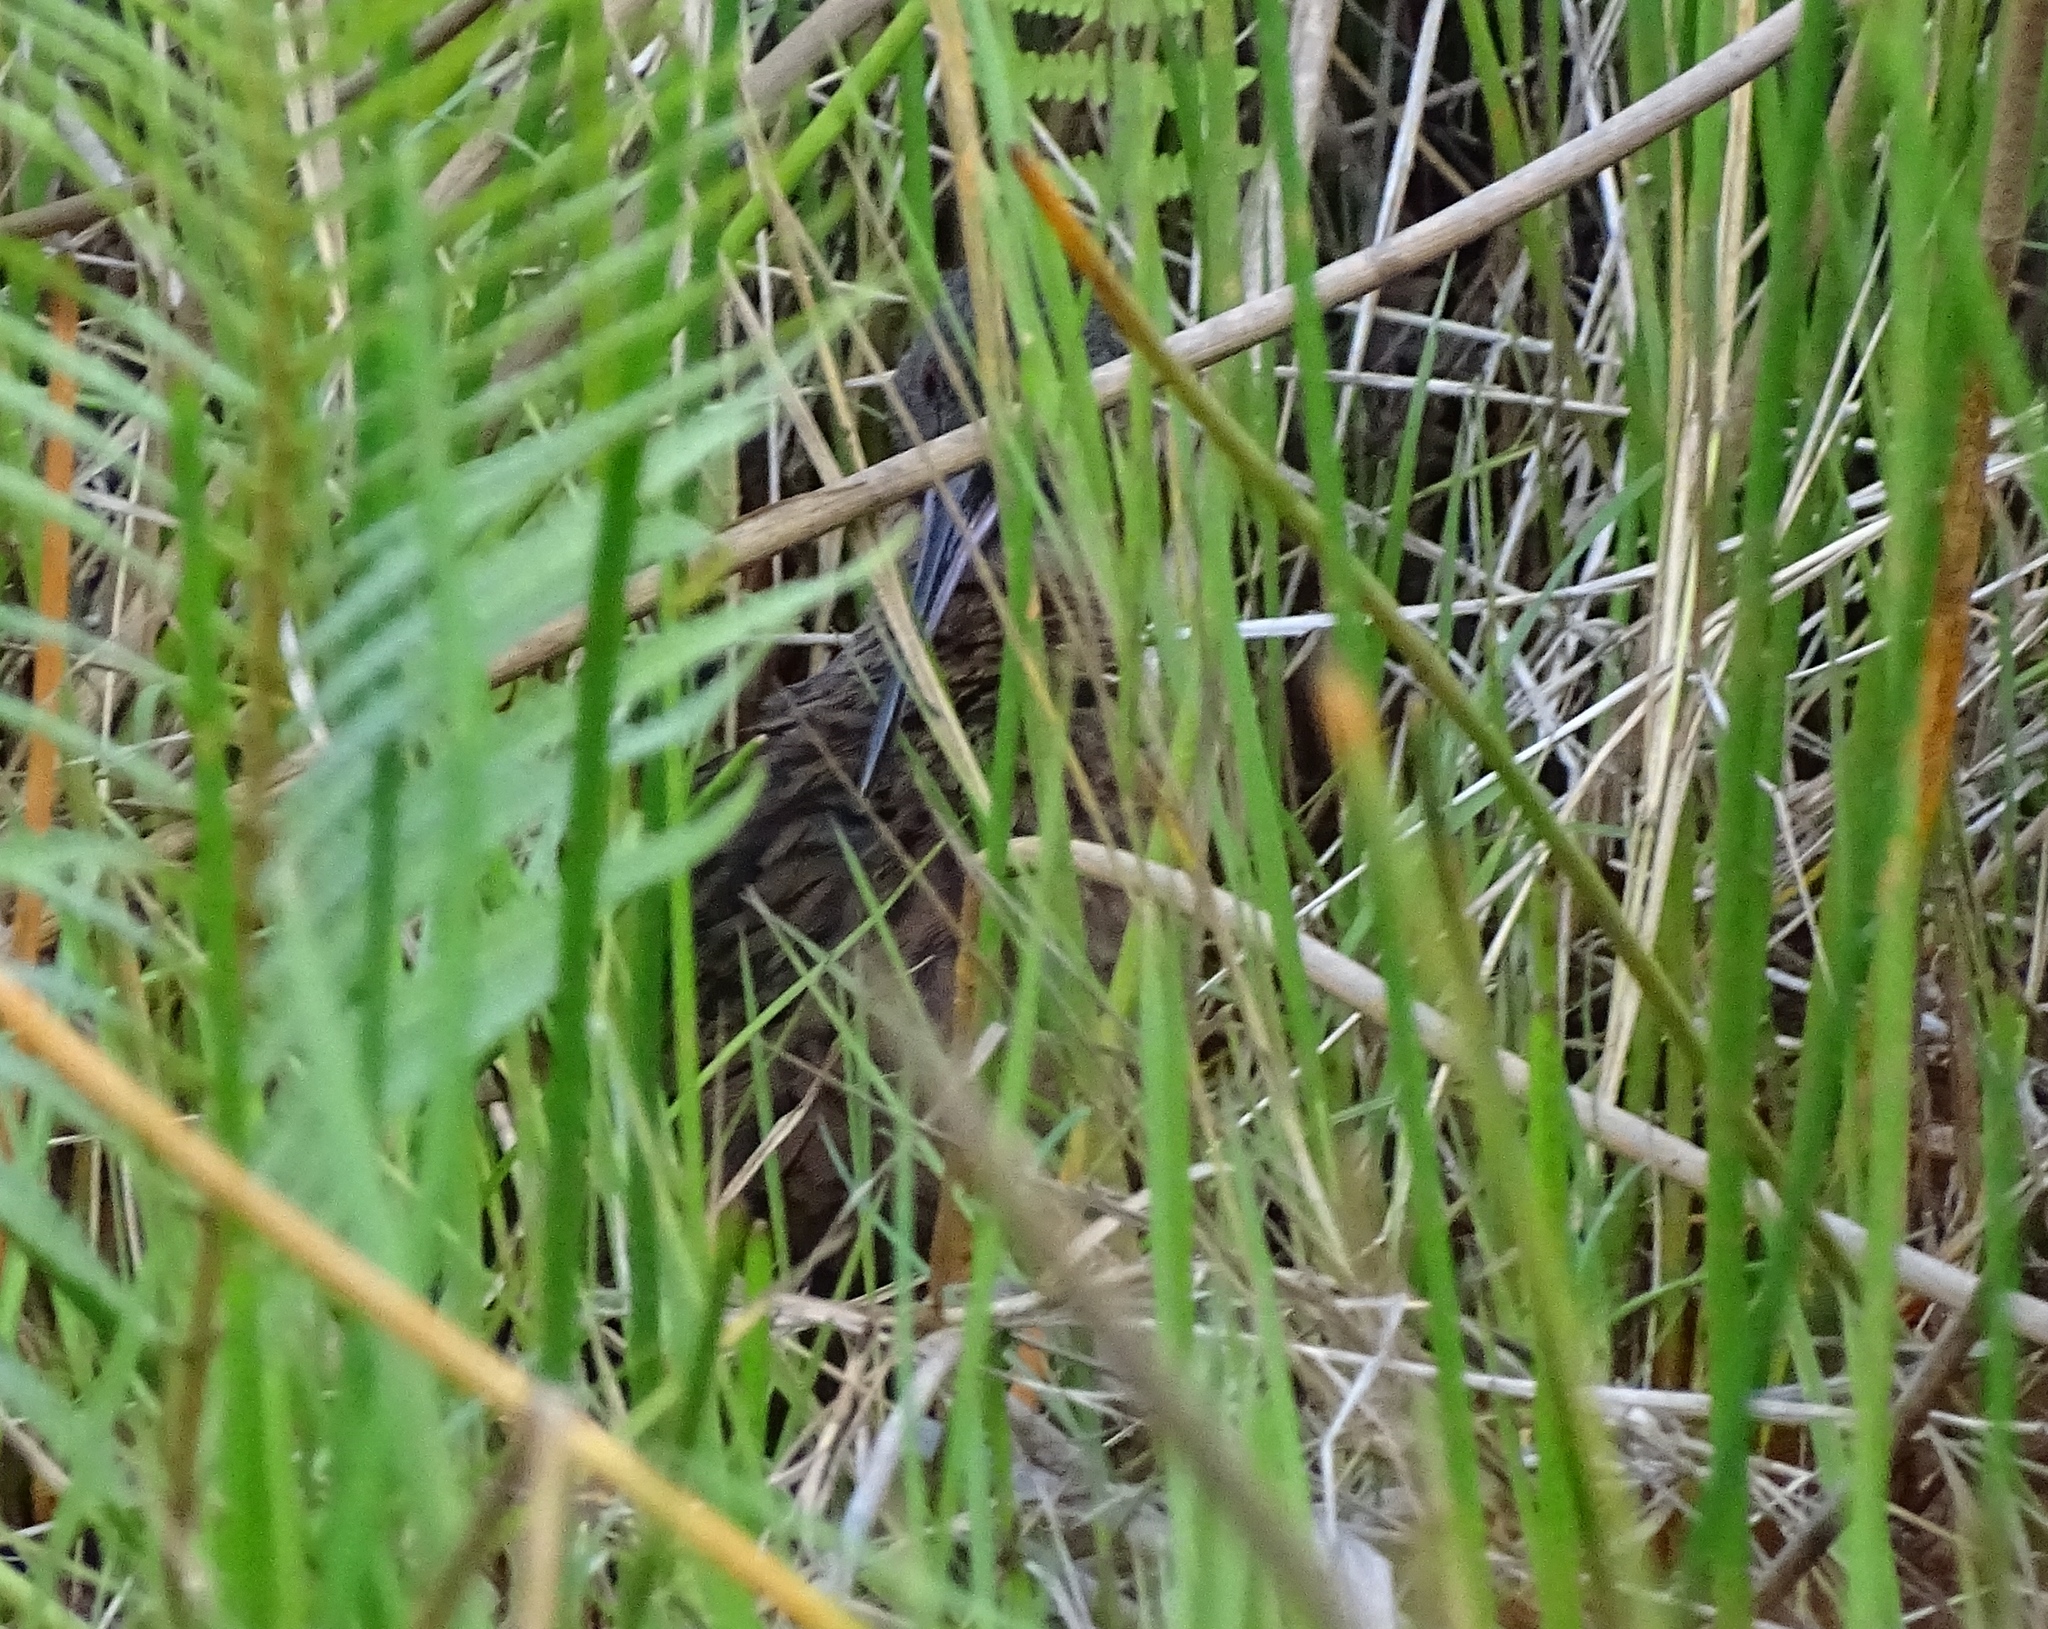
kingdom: Animalia
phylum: Chordata
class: Aves
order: Gruiformes
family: Rallidae
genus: Rallus
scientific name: Rallus madagascariensis
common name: Madagascar rail
